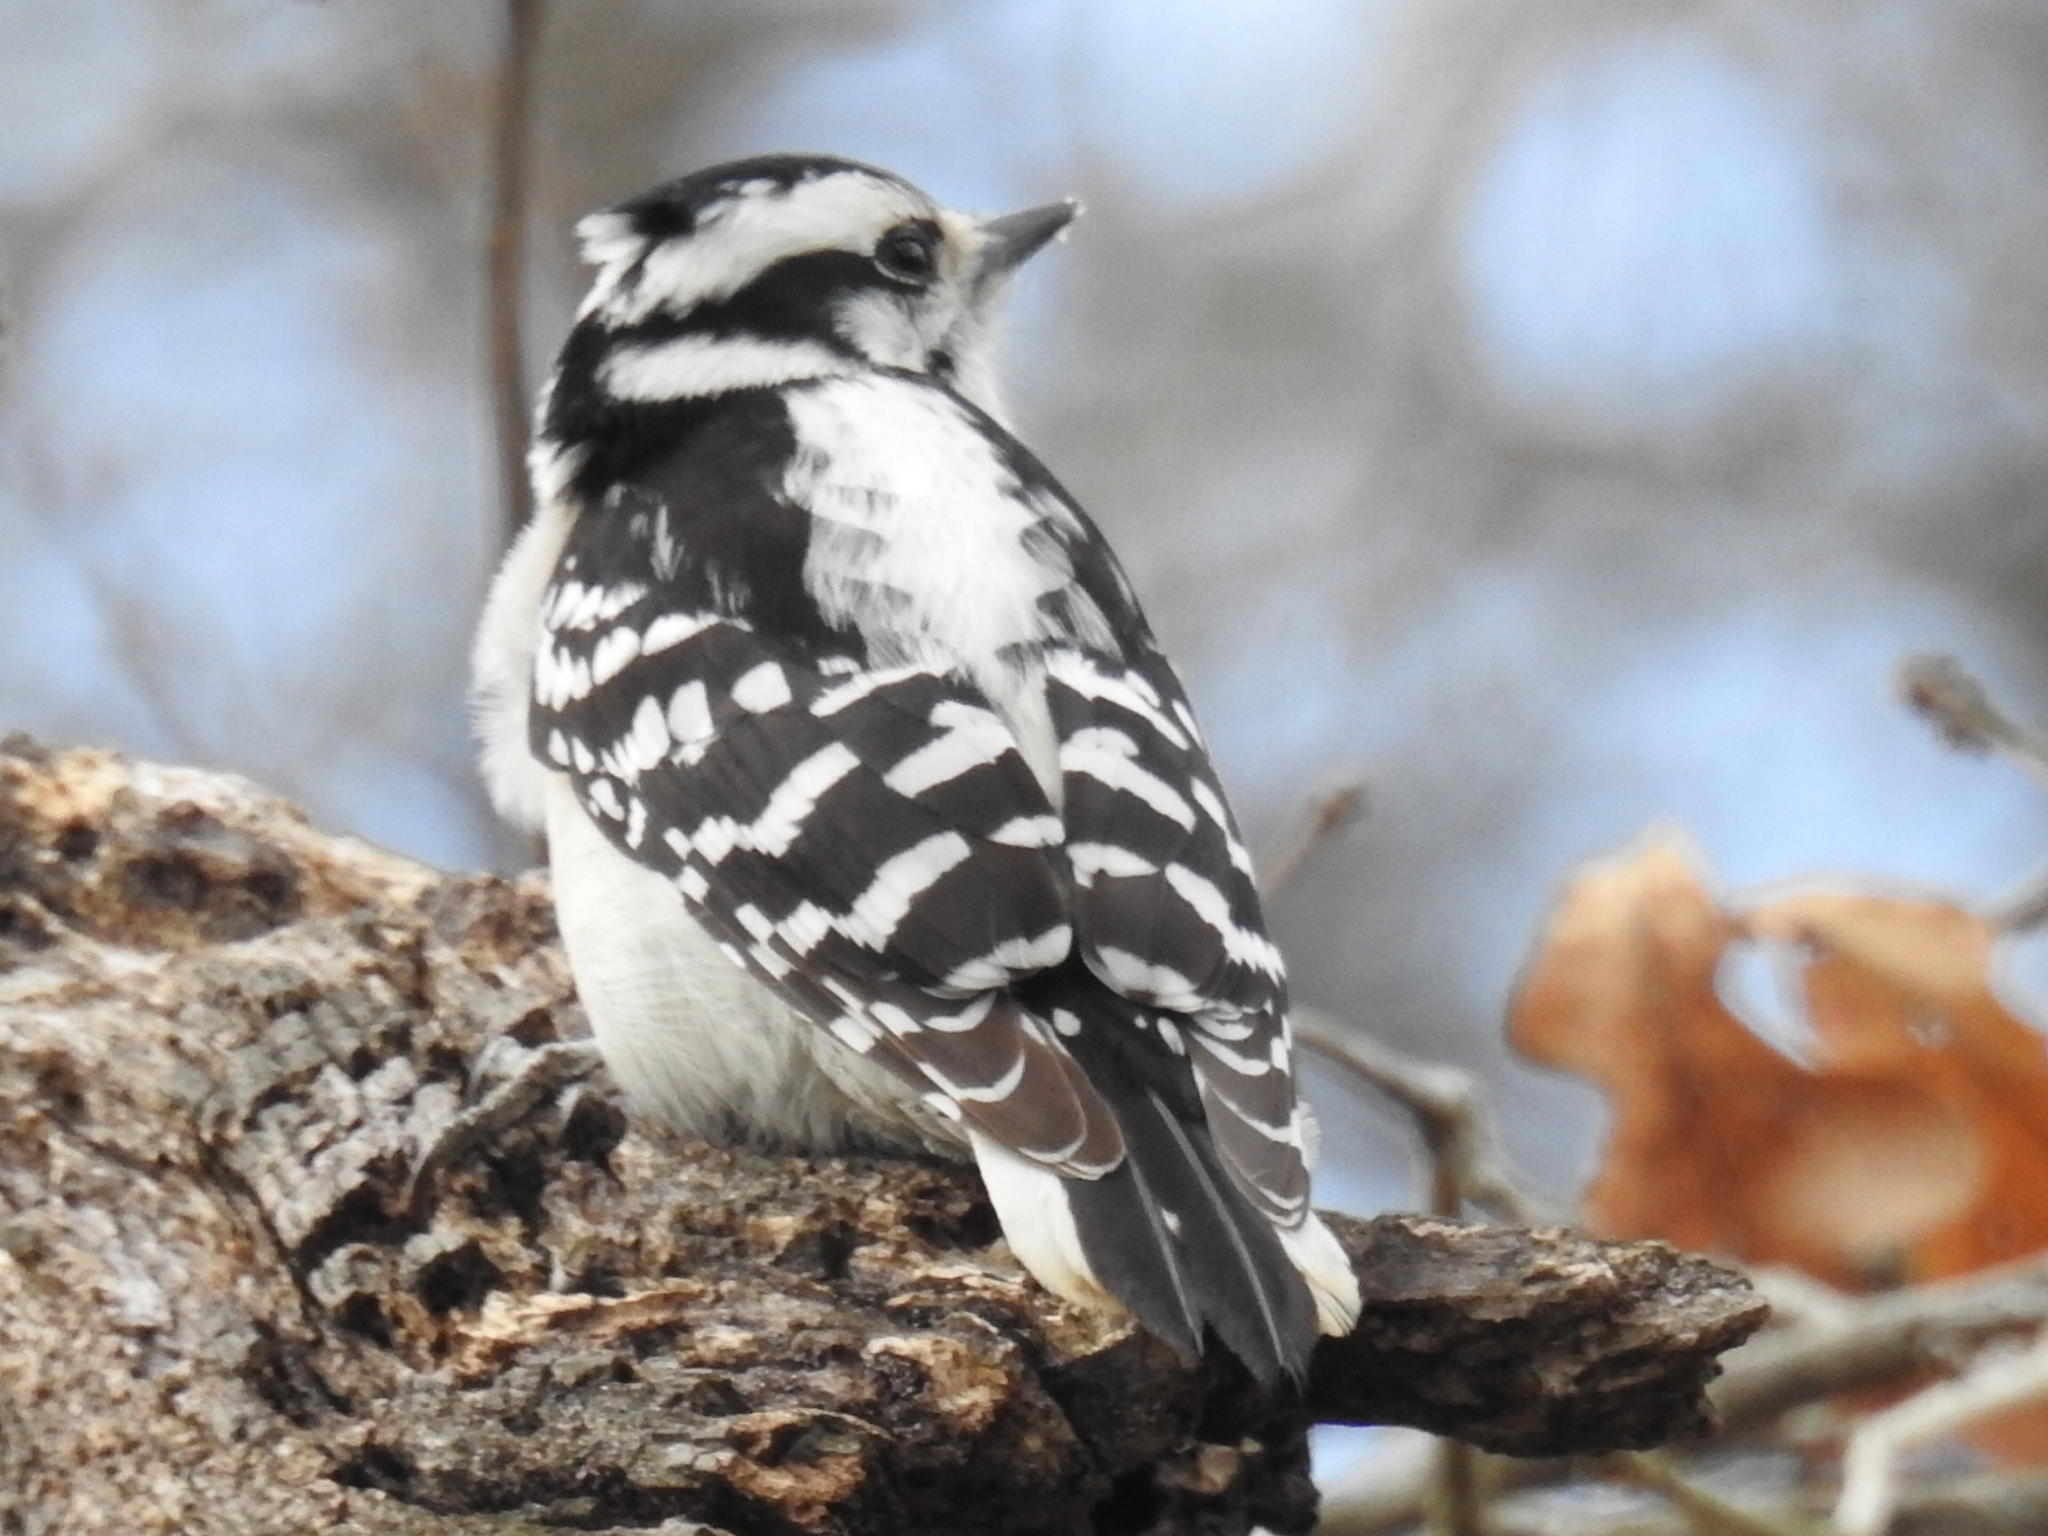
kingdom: Animalia
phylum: Chordata
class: Aves
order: Piciformes
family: Picidae
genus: Dryobates
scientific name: Dryobates pubescens
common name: Downy woodpecker
